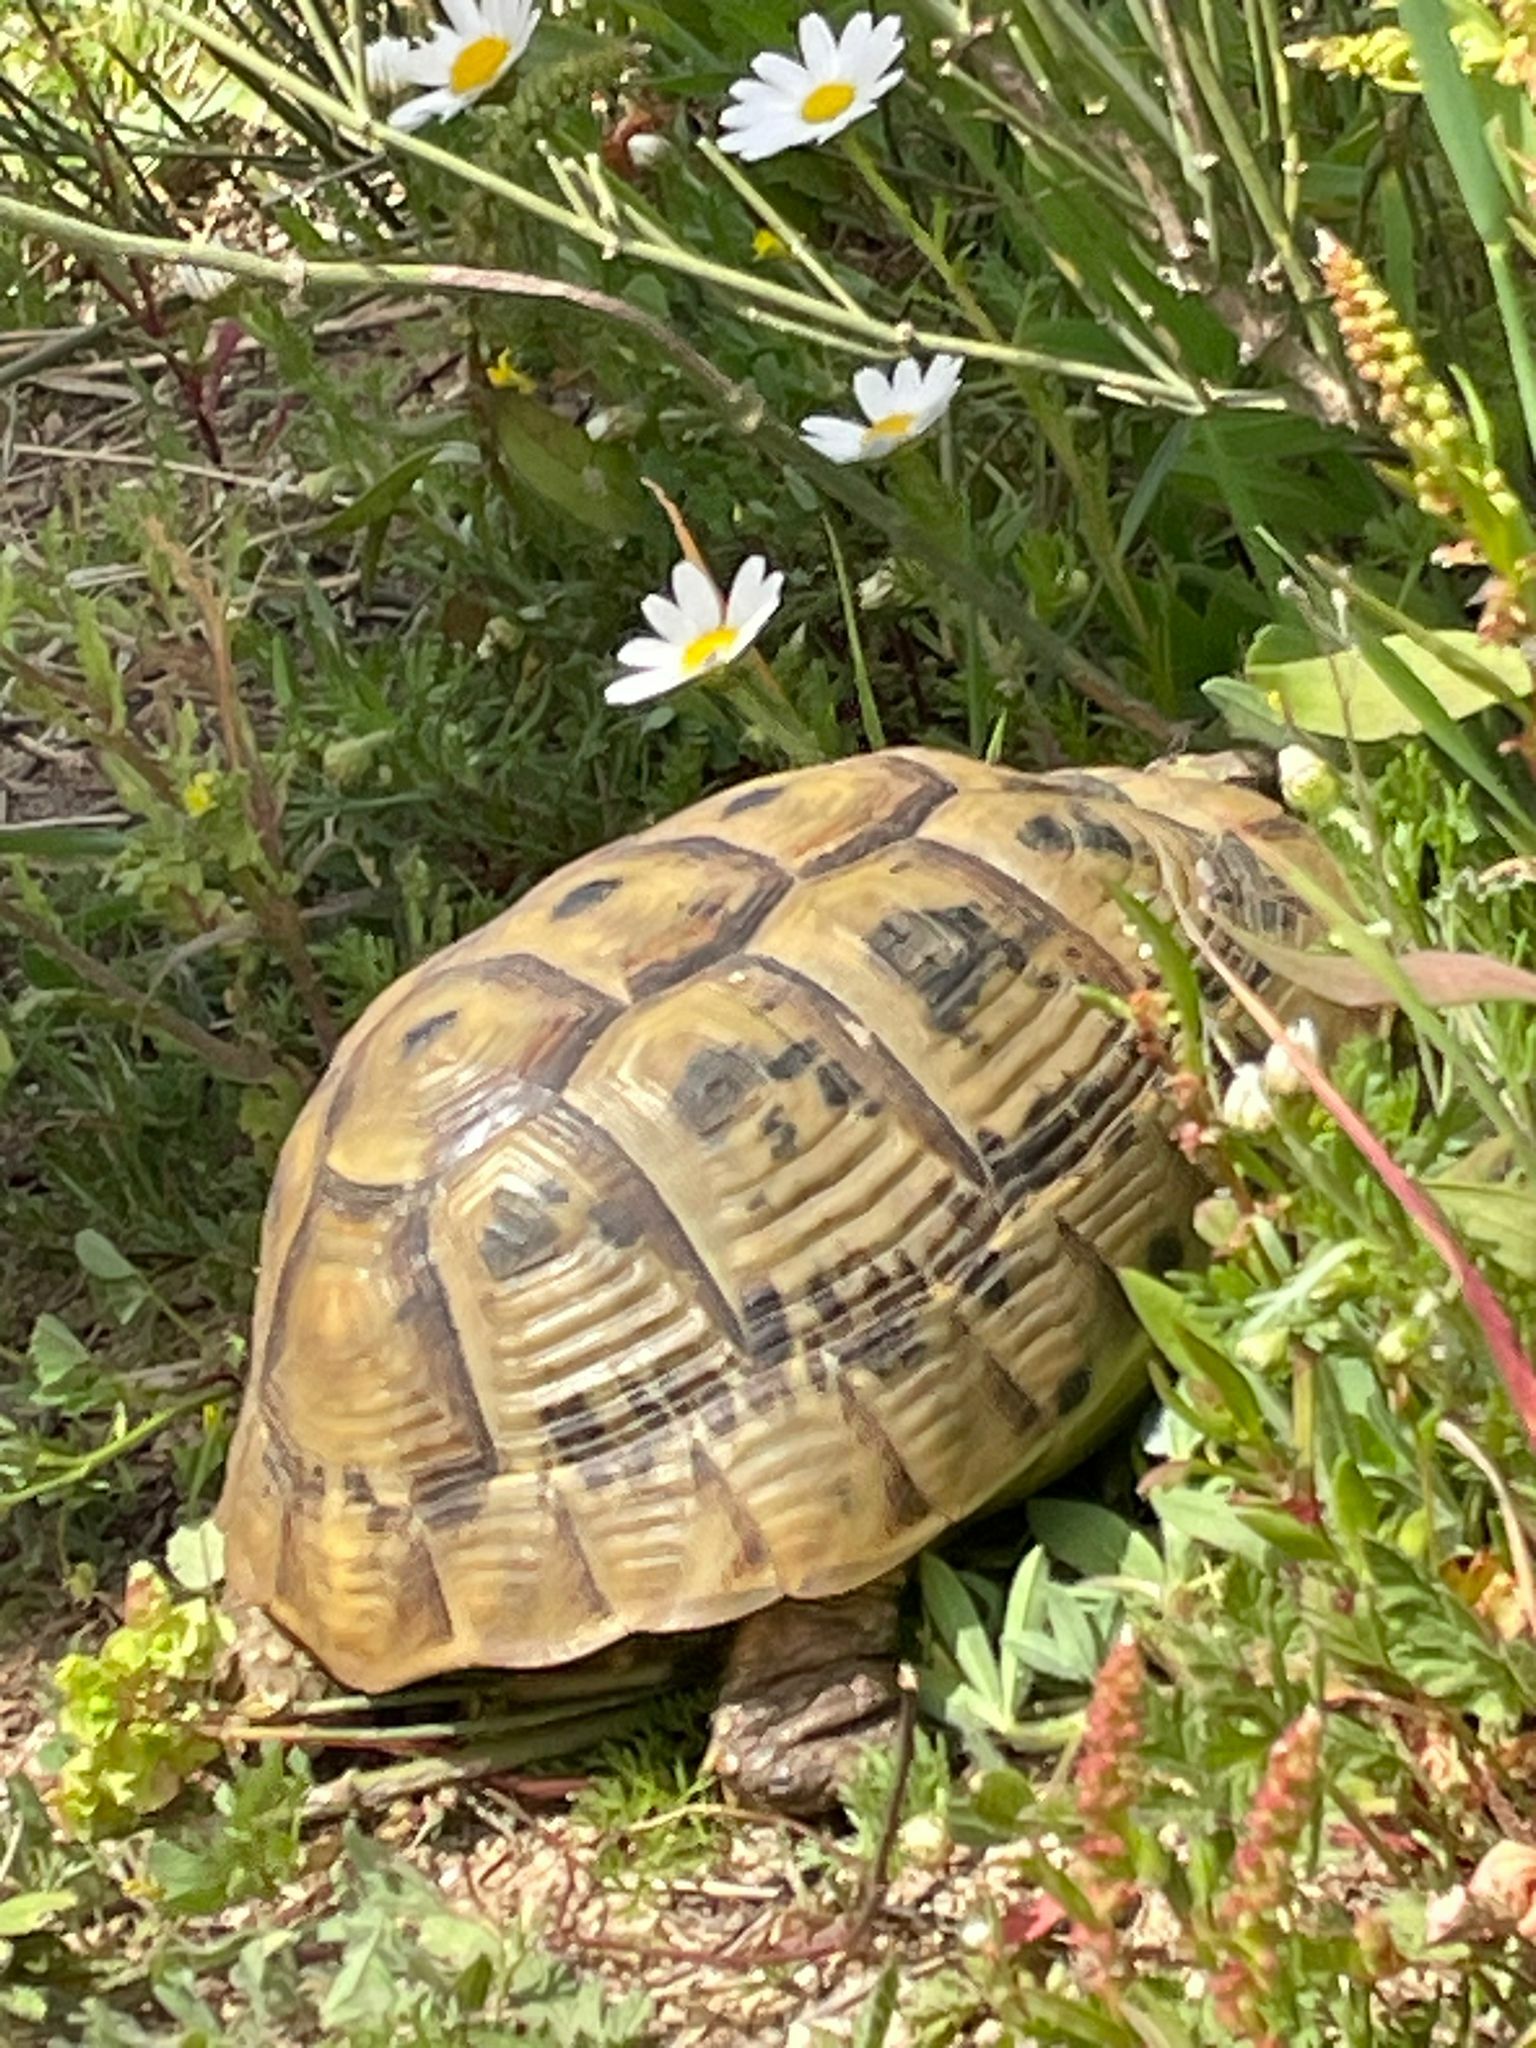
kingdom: Animalia
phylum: Chordata
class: Testudines
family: Testudinidae
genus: Testudo
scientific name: Testudo graeca
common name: Common tortoise
